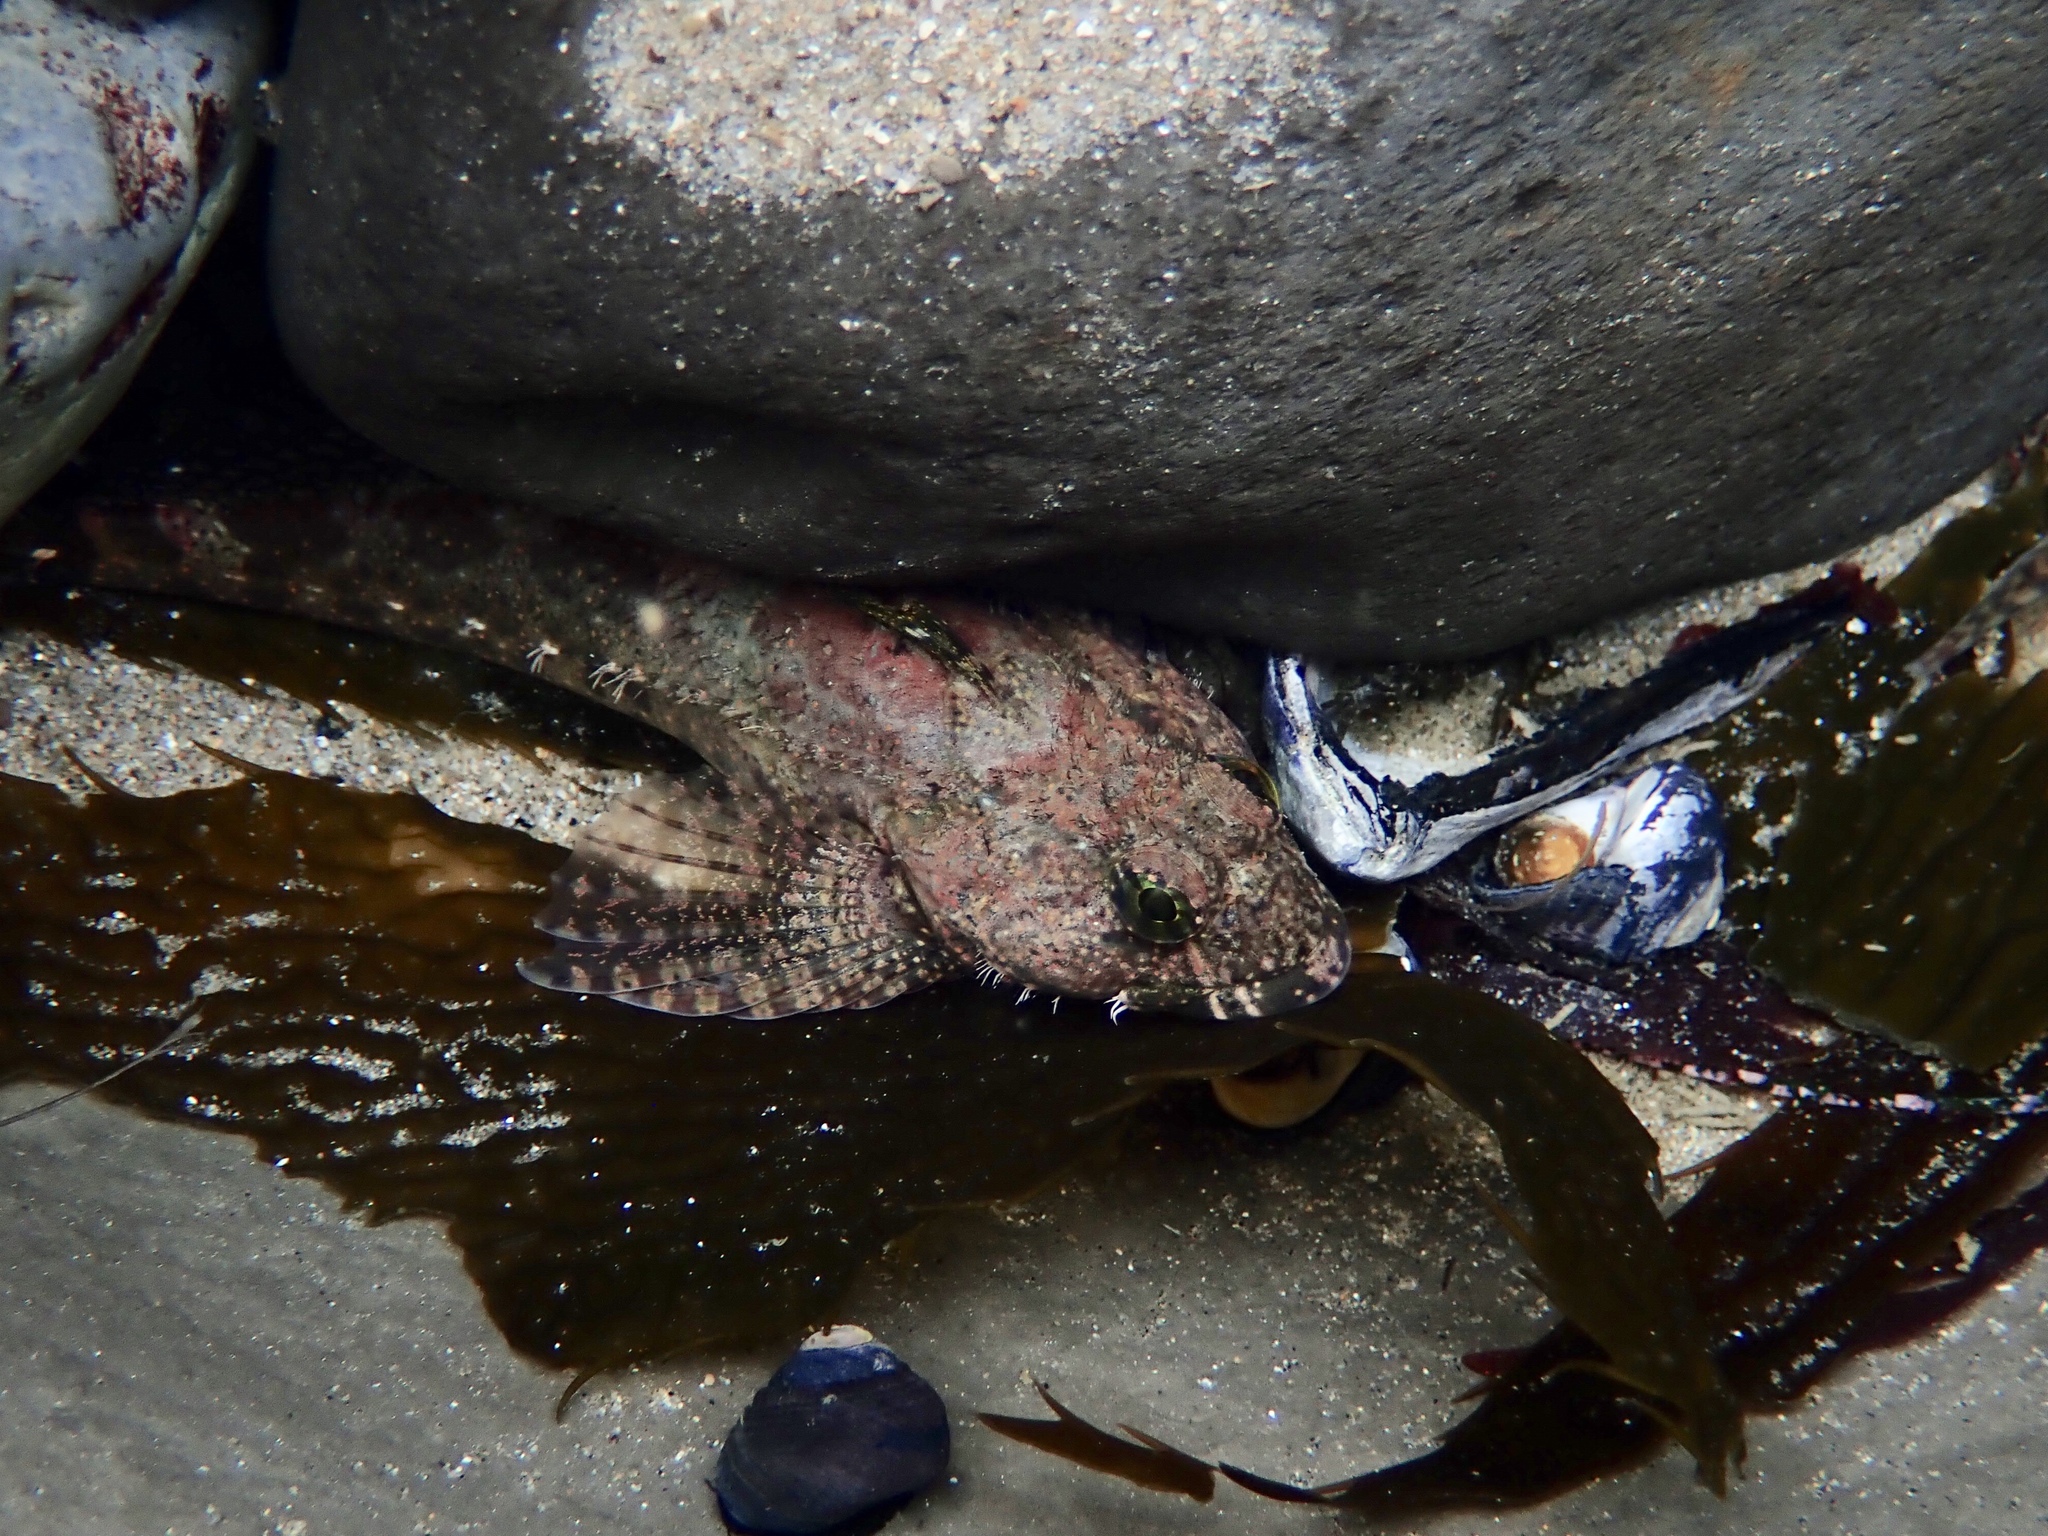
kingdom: Animalia
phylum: Chordata
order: Scorpaeniformes
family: Cottidae
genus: Clinocottus
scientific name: Clinocottus analis
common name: Woolly sculpin
